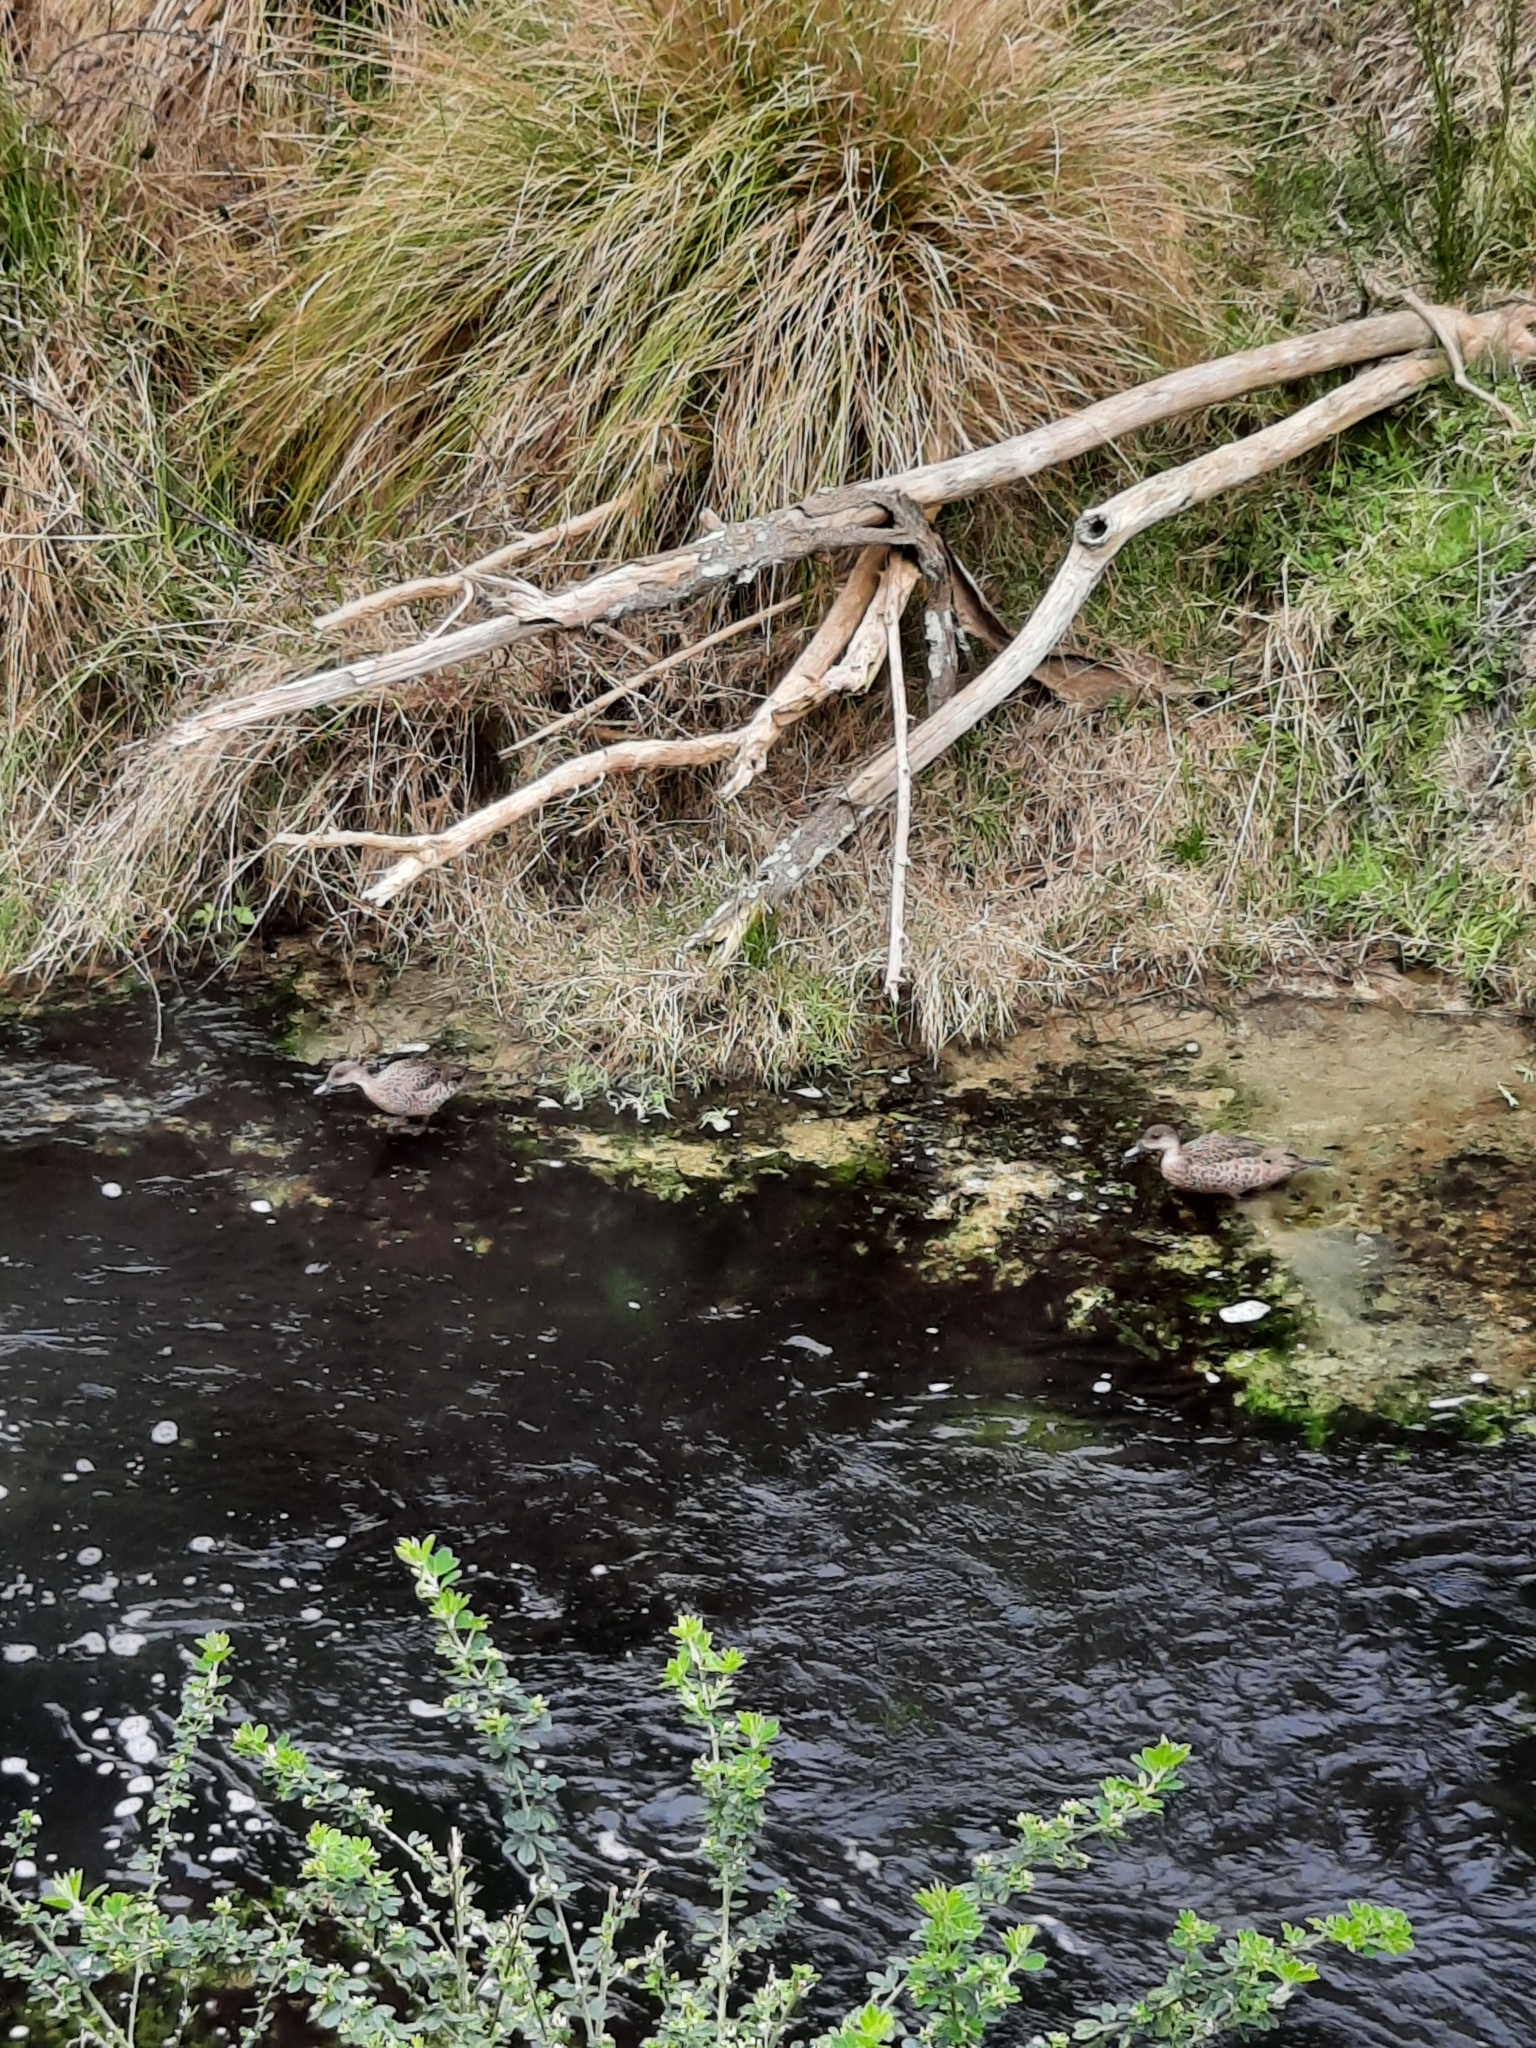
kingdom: Animalia
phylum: Chordata
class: Aves
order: Anseriformes
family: Anatidae
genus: Anas
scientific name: Anas gracilis
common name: Grey teal
